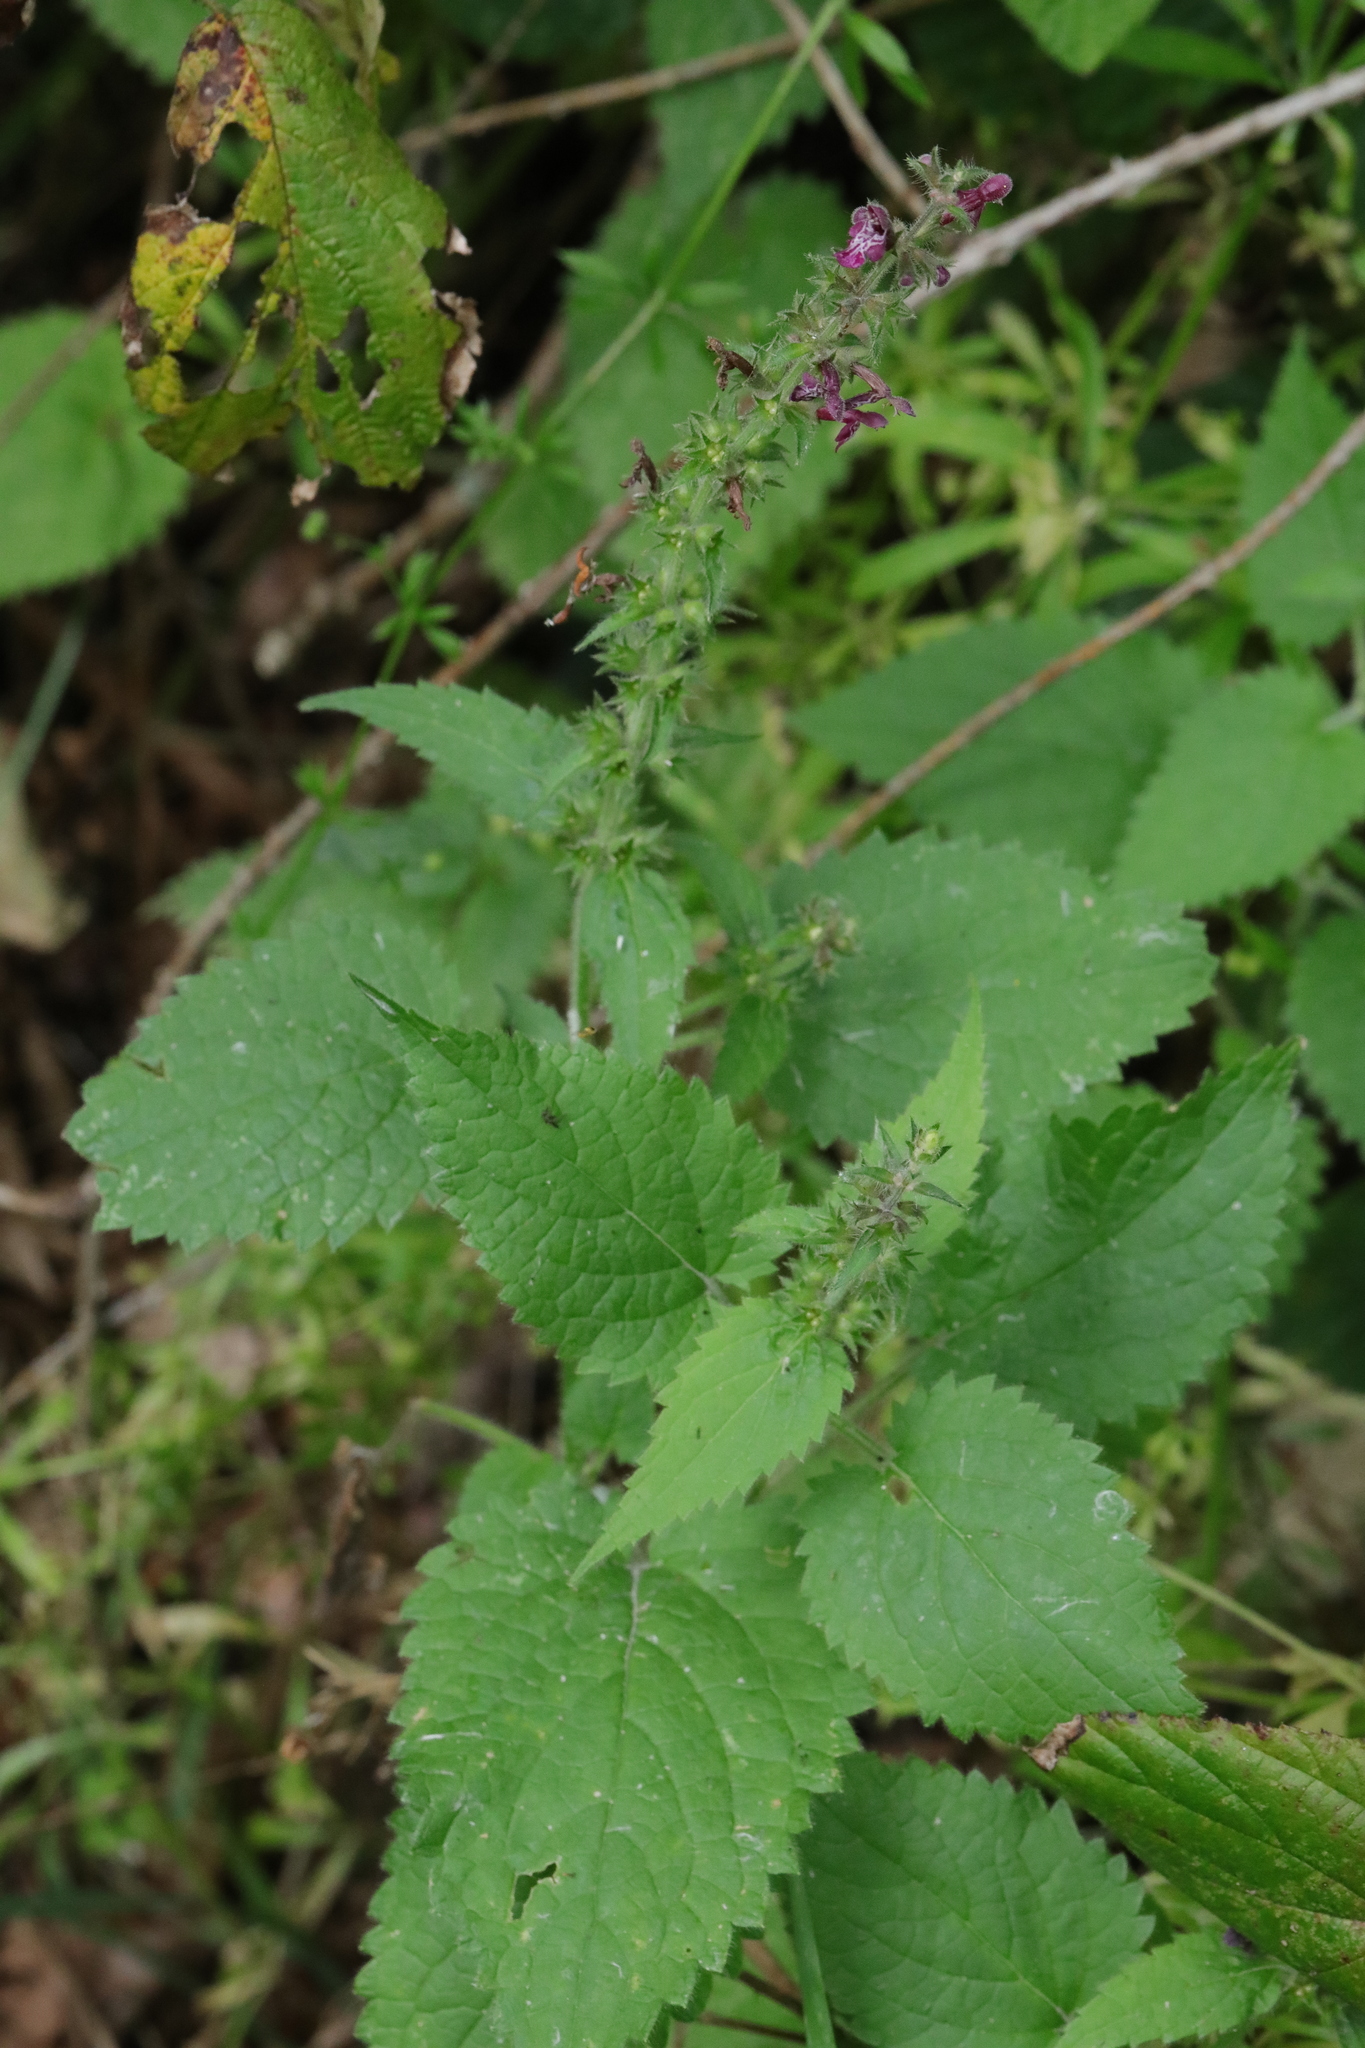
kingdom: Plantae
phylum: Tracheophyta
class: Magnoliopsida
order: Lamiales
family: Lamiaceae
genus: Stachys
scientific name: Stachys sylvatica
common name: Hedge woundwort
